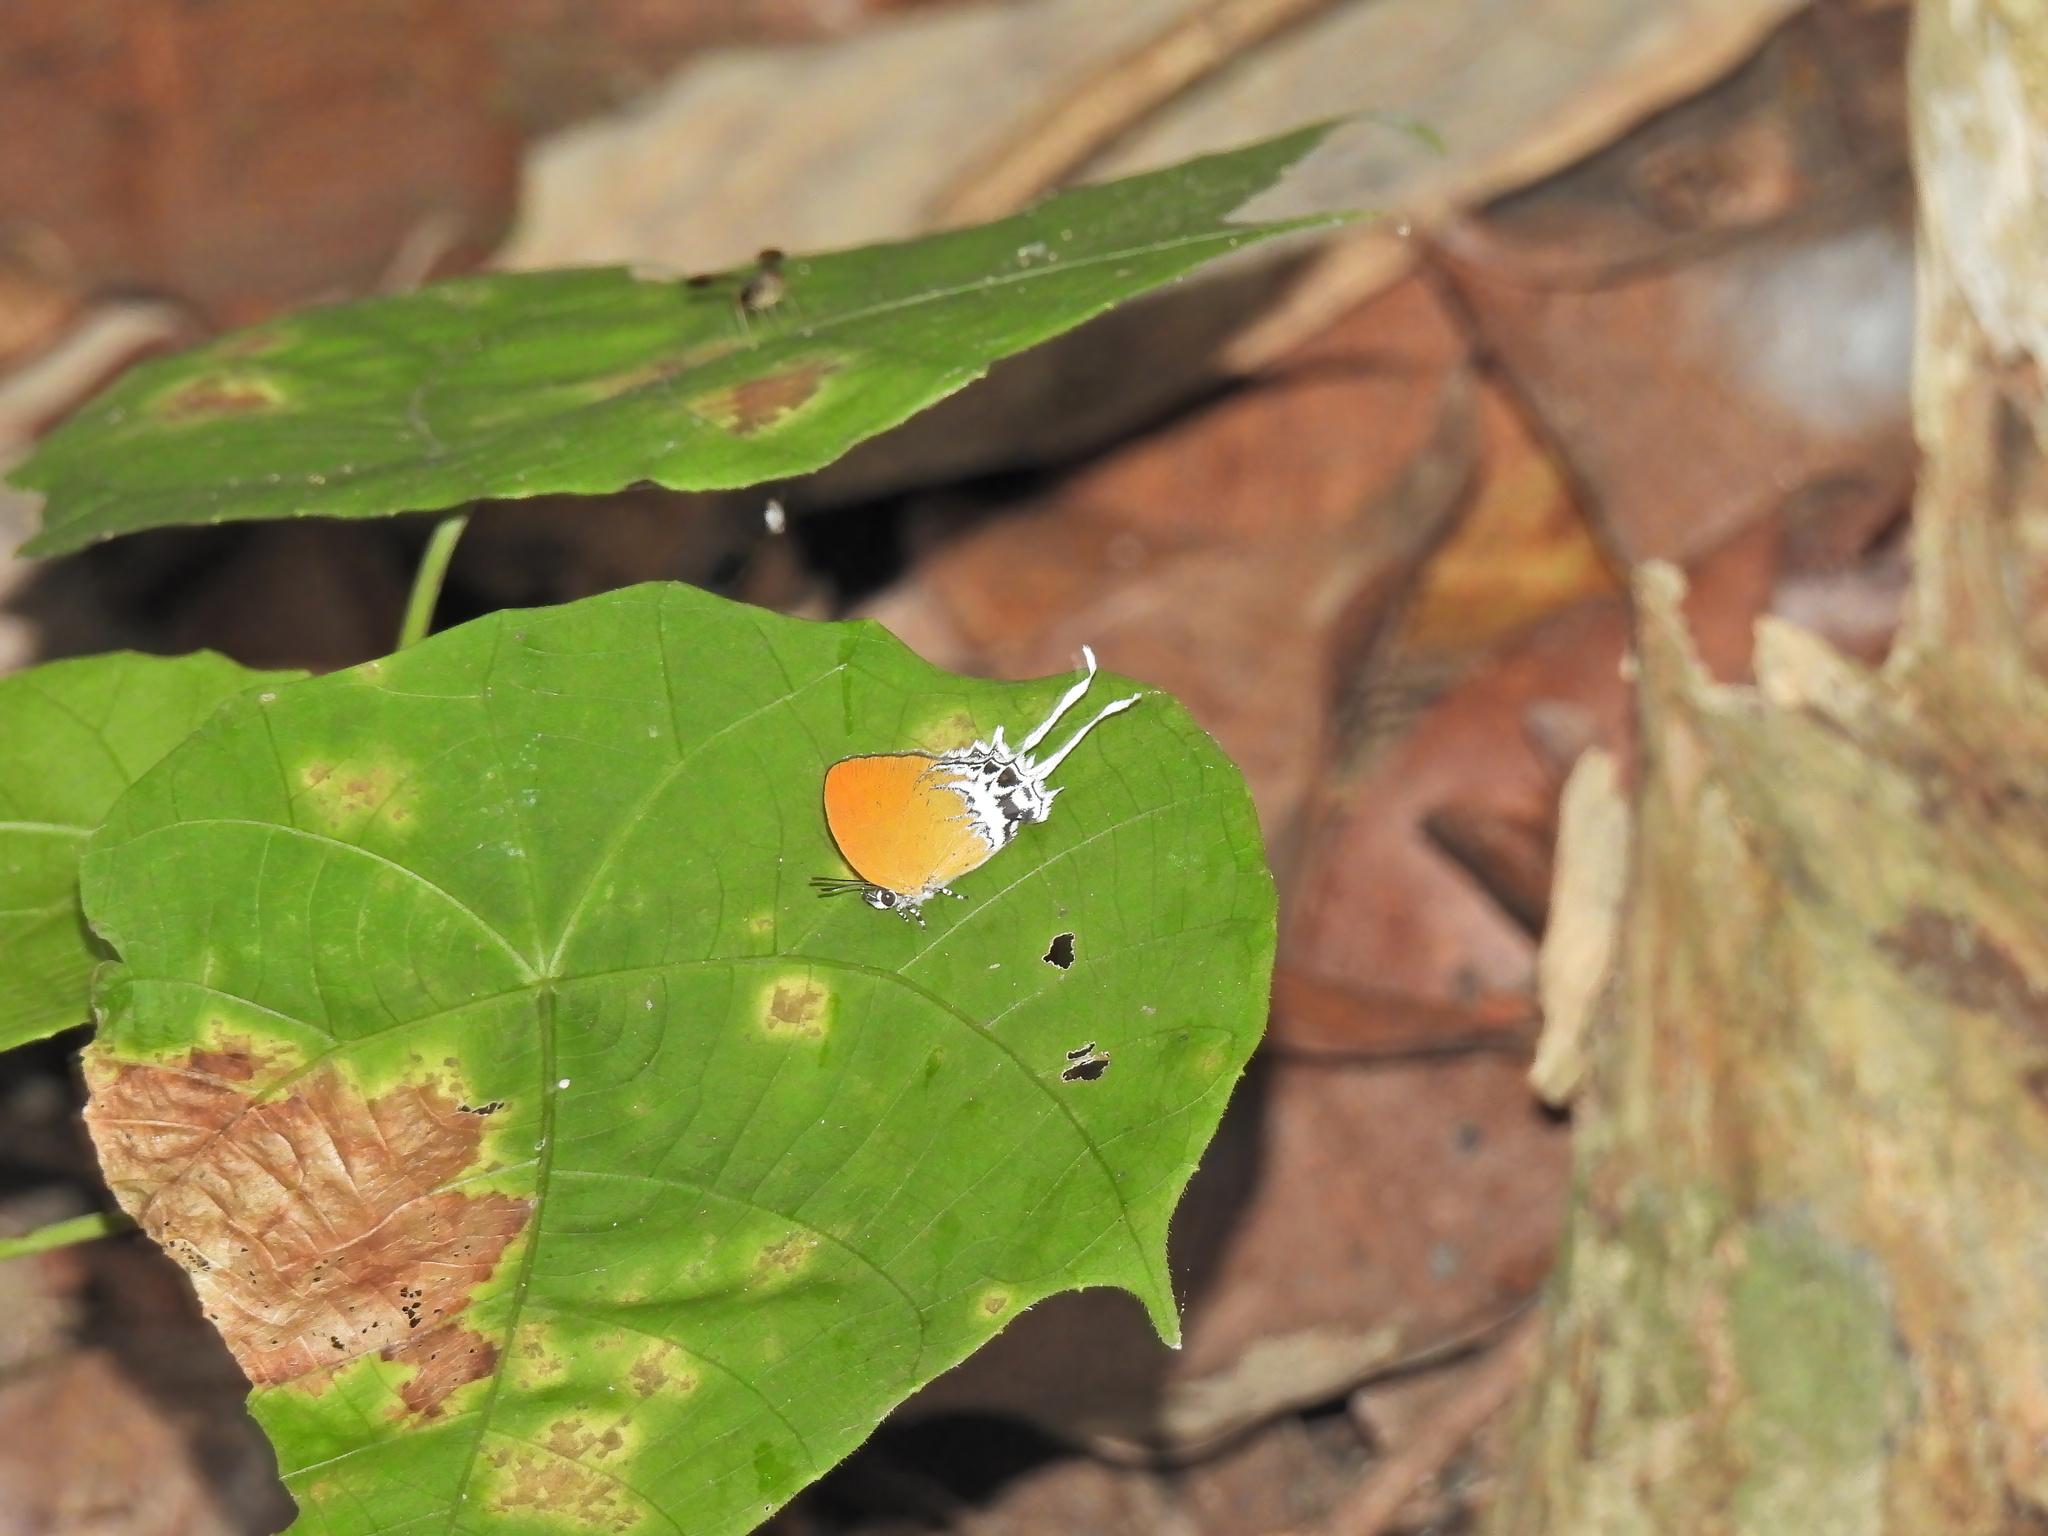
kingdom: Animalia
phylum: Arthropoda
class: Insecta
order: Lepidoptera
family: Lycaenidae
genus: Eooxylides
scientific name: Eooxylides tharis
